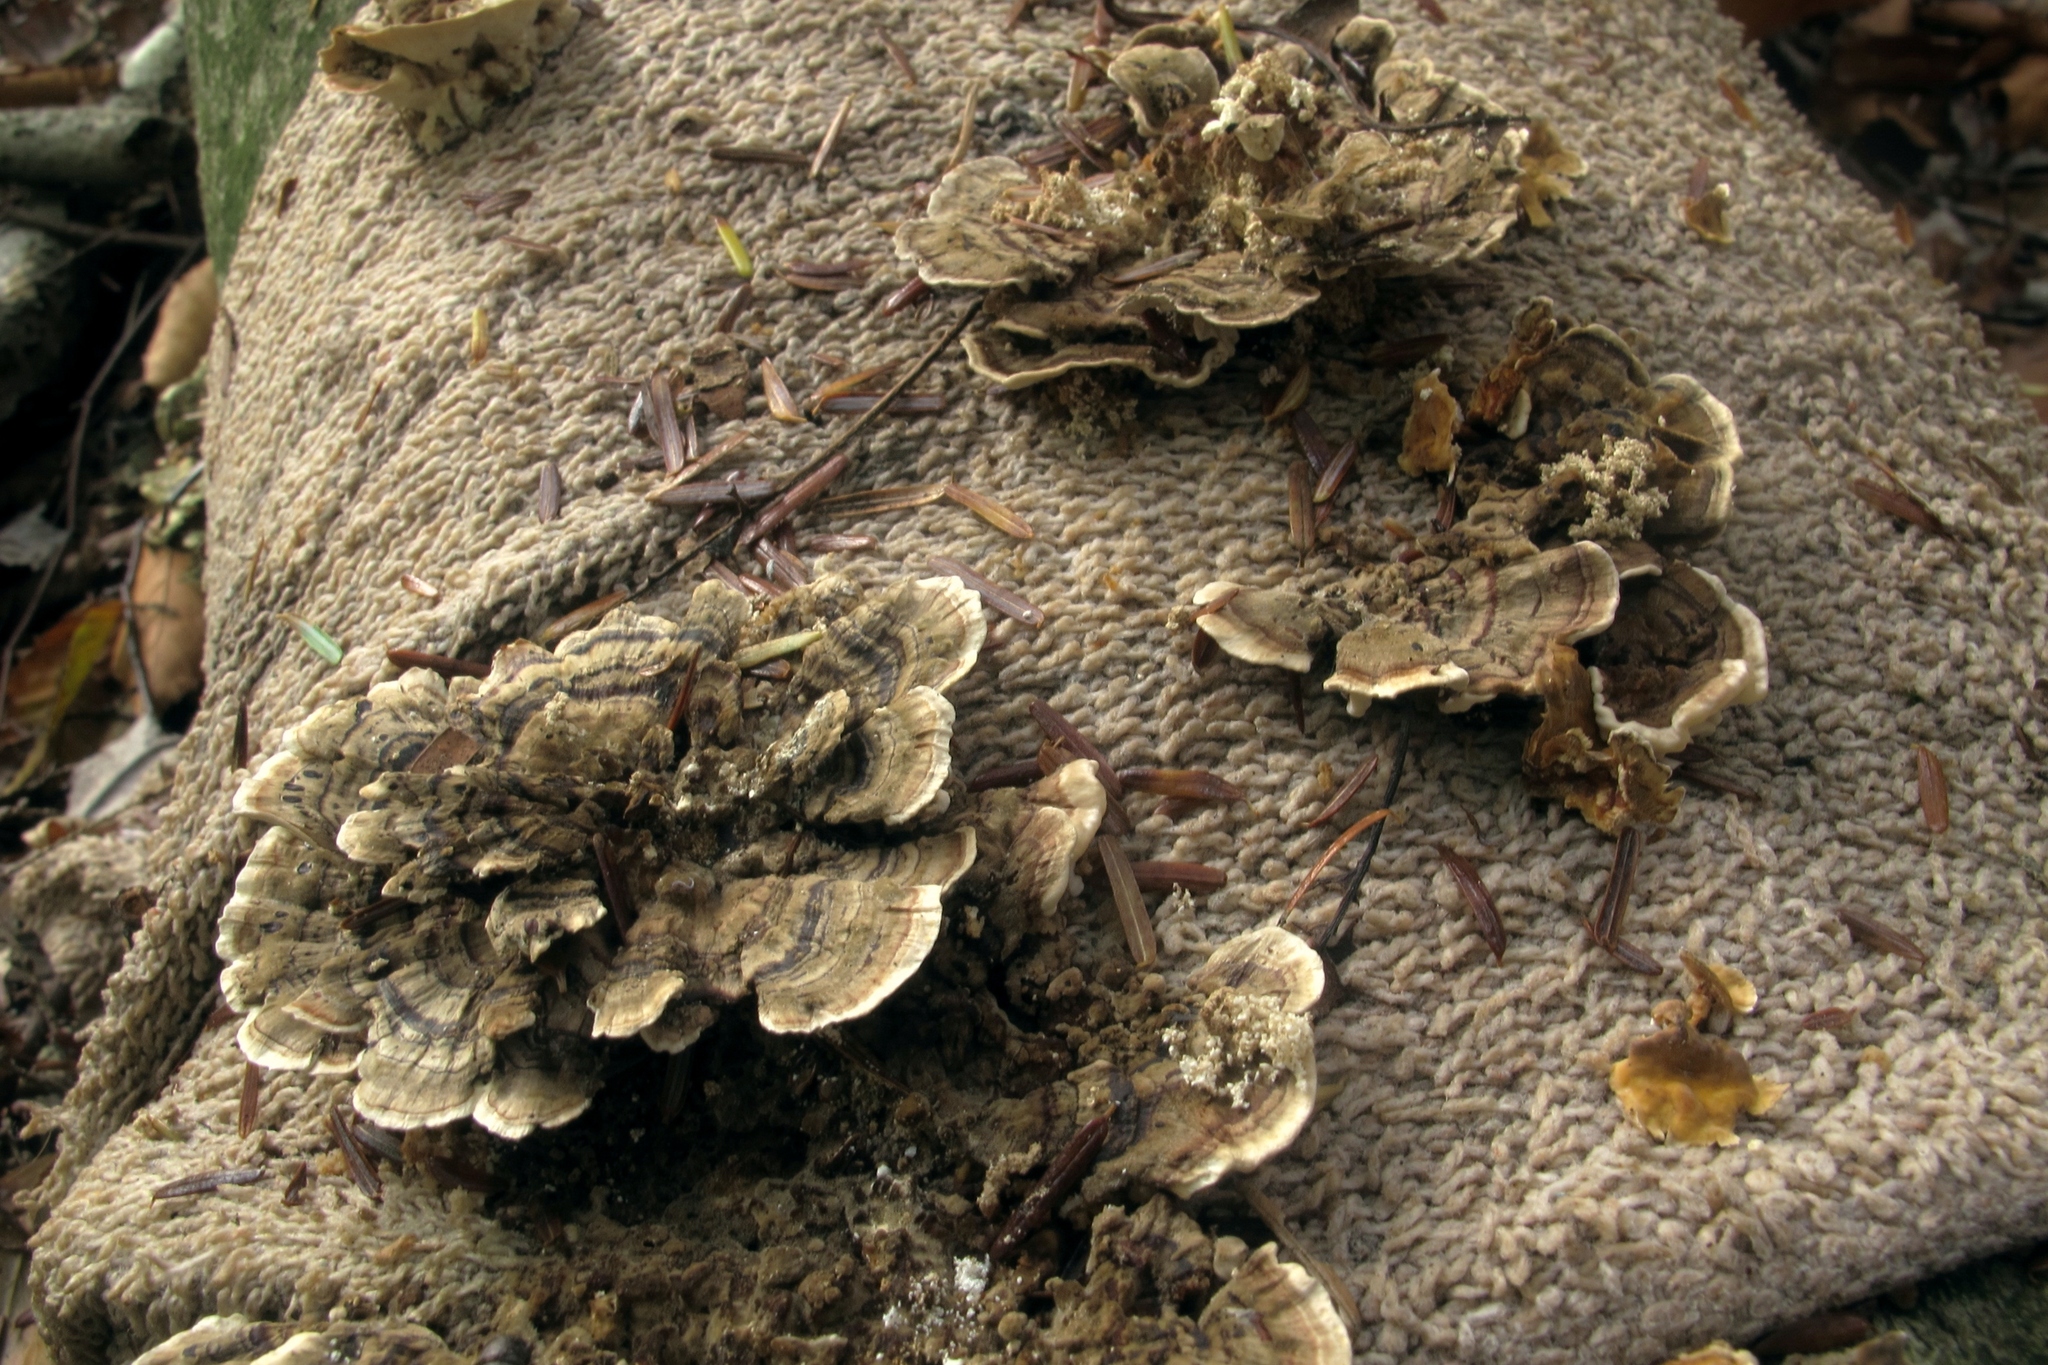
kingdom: Fungi
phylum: Basidiomycota
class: Agaricomycetes
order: Polyporales
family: Polyporaceae
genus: Trametes
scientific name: Trametes versicolor
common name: Turkeytail
